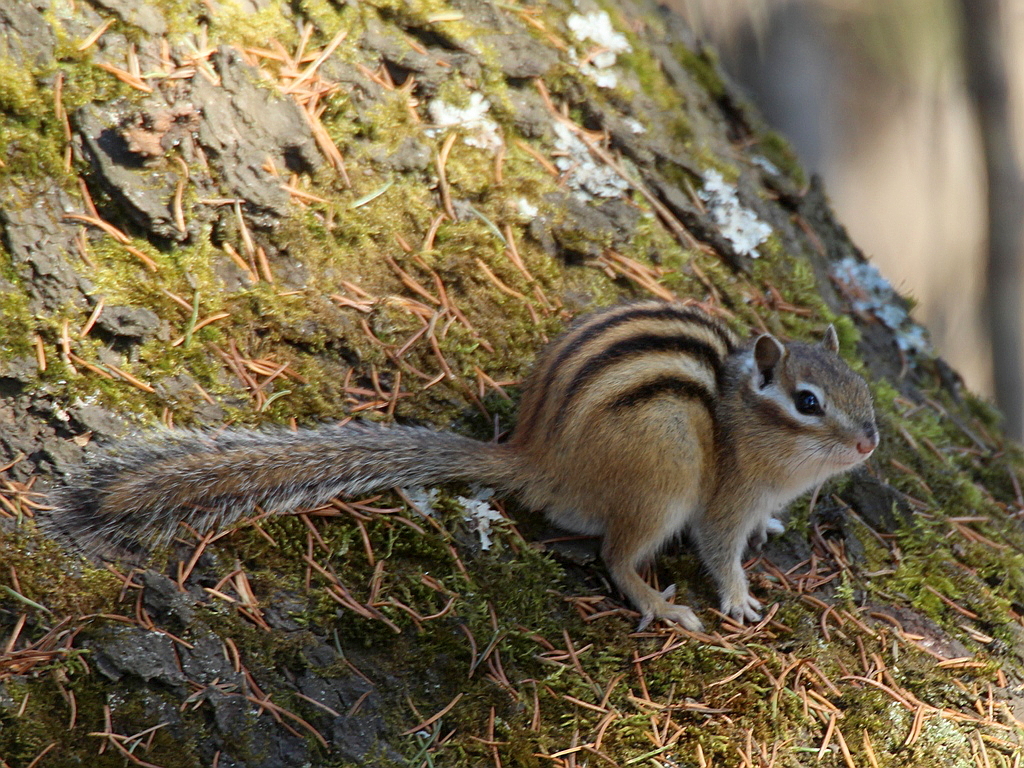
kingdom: Animalia
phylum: Chordata
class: Mammalia
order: Rodentia
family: Sciuridae
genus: Tamias
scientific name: Tamias sibiricus
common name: Siberian chipmunk
